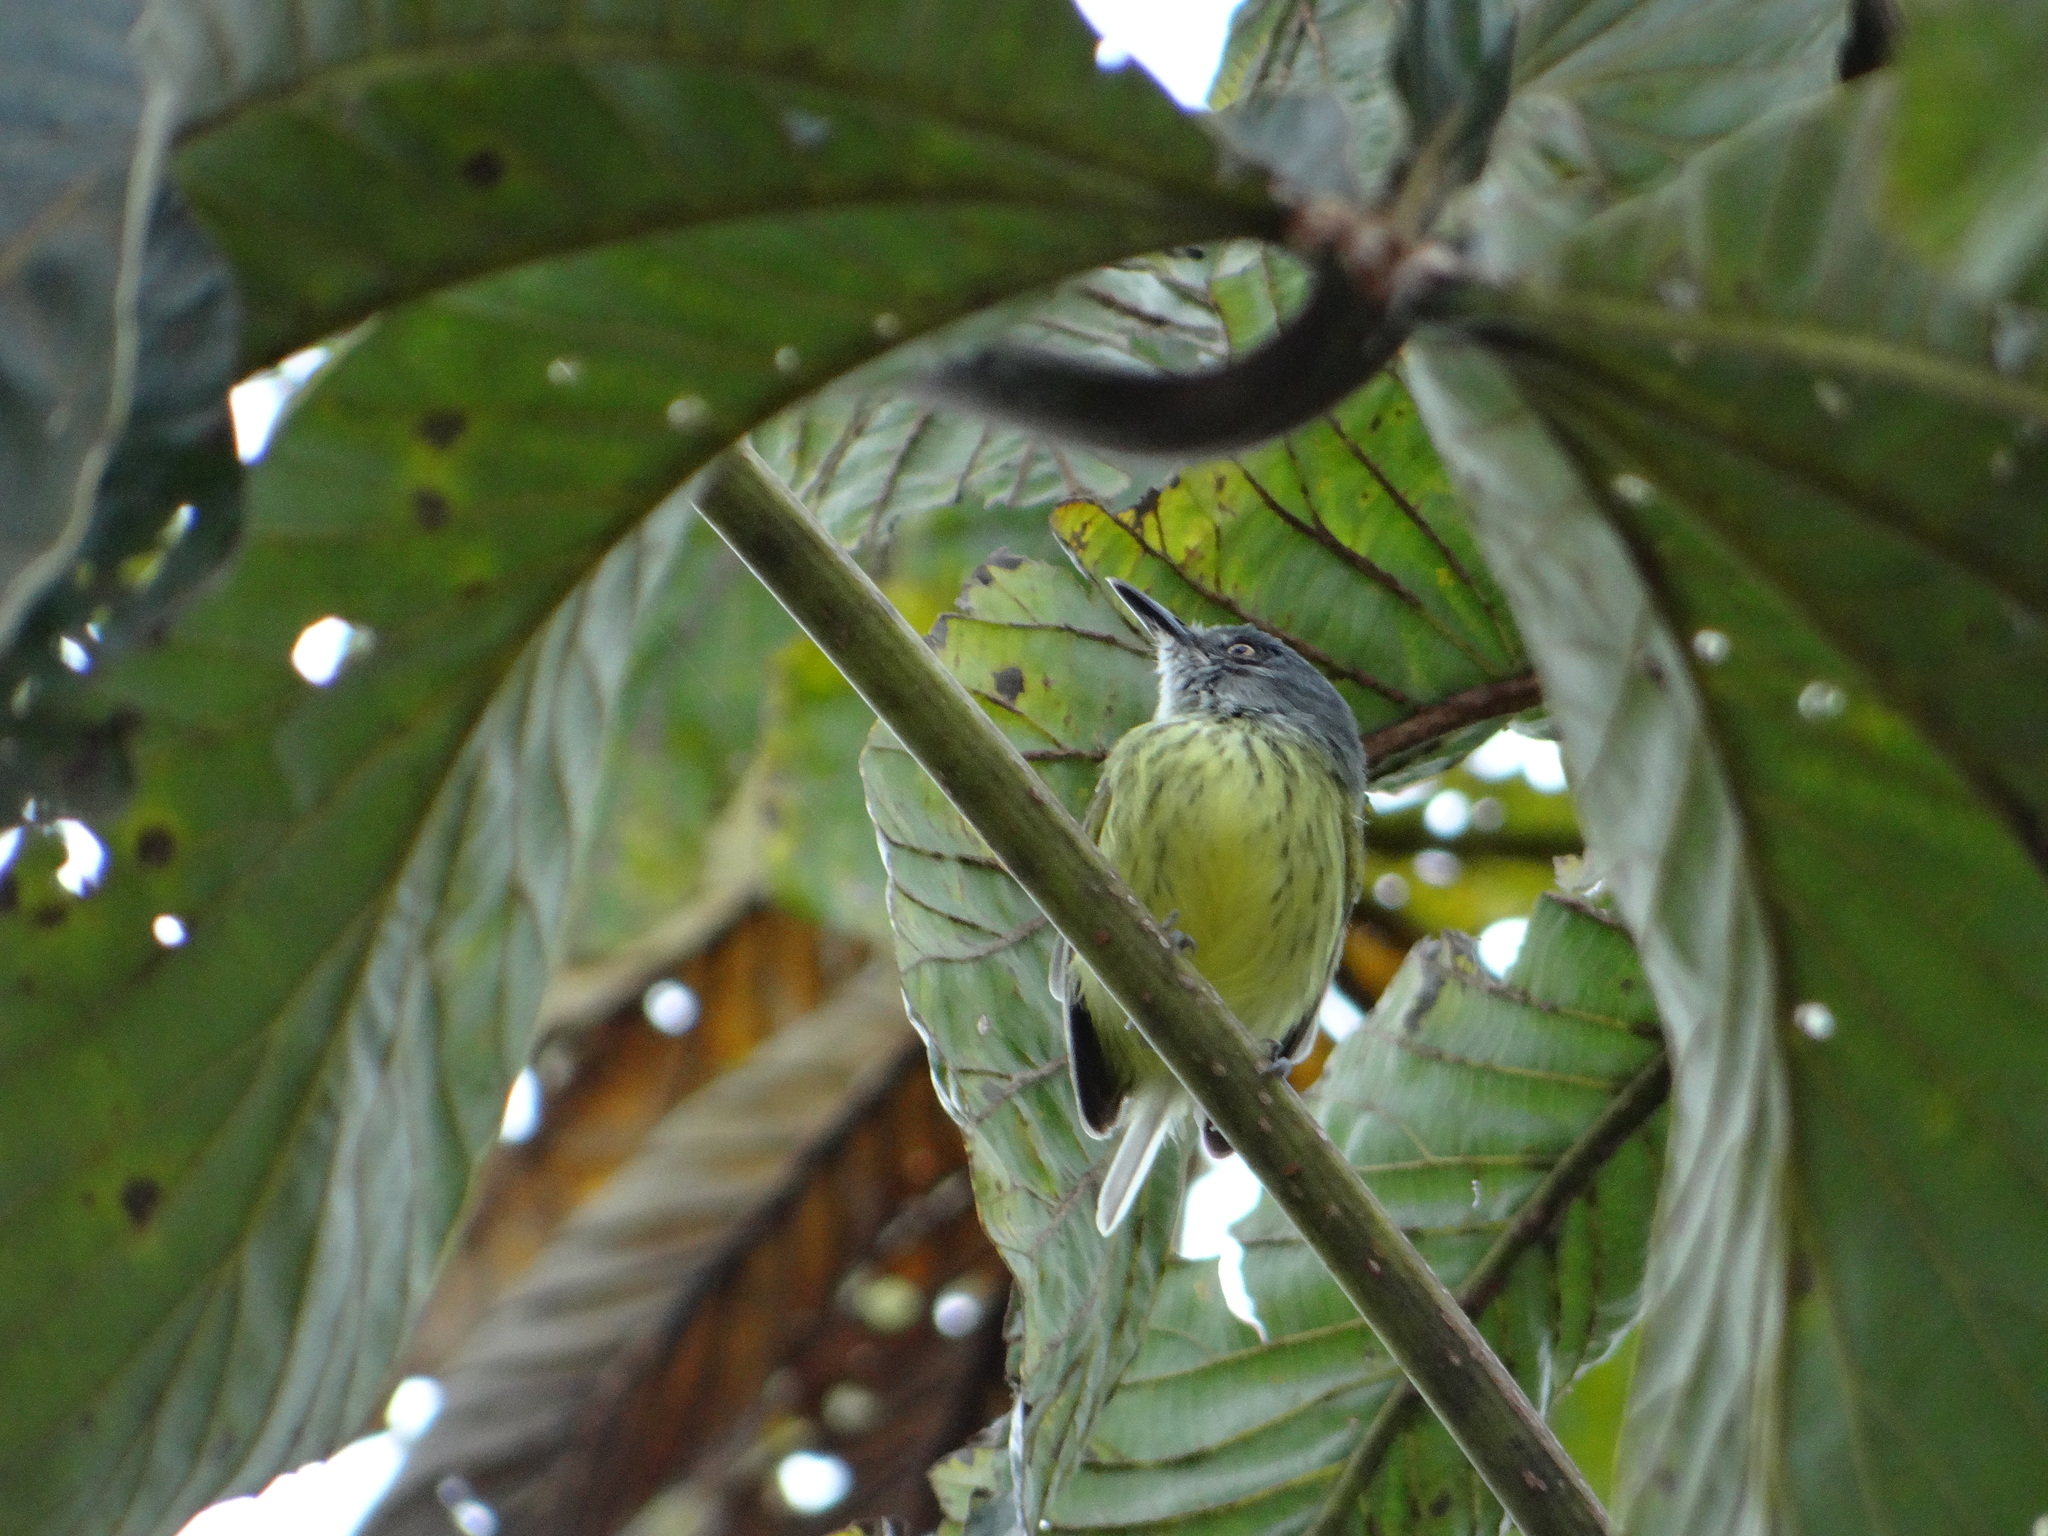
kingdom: Animalia
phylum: Chordata
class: Aves
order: Passeriformes
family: Tyrannidae
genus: Todirostrum
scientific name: Todirostrum maculatum
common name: Spotted tody-flycatcher
